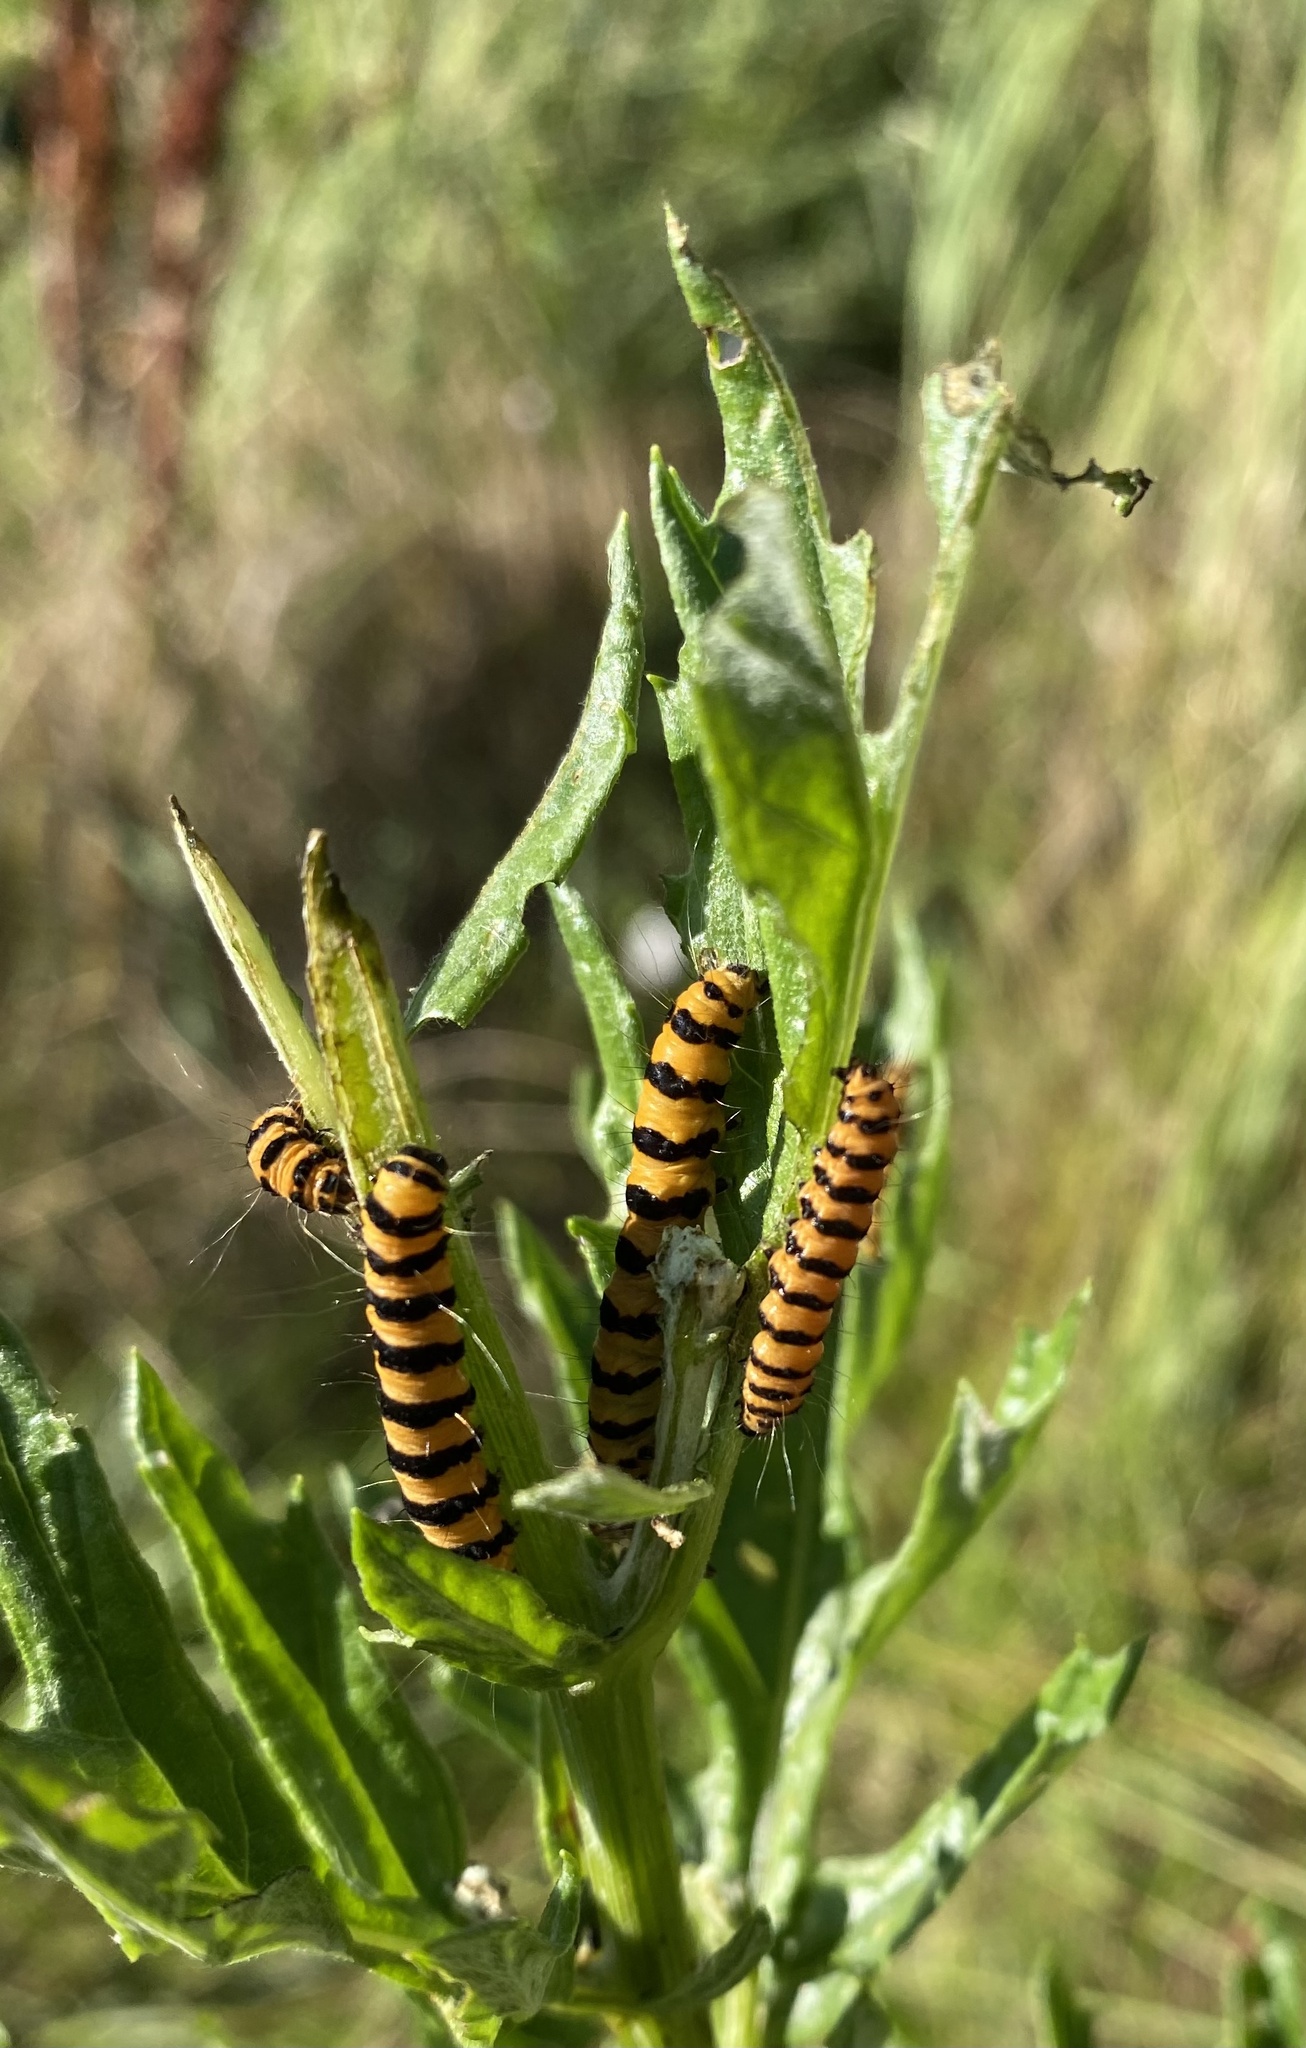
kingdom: Animalia
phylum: Arthropoda
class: Insecta
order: Lepidoptera
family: Erebidae
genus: Tyria
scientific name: Tyria jacobaeae
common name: Cinnabar
